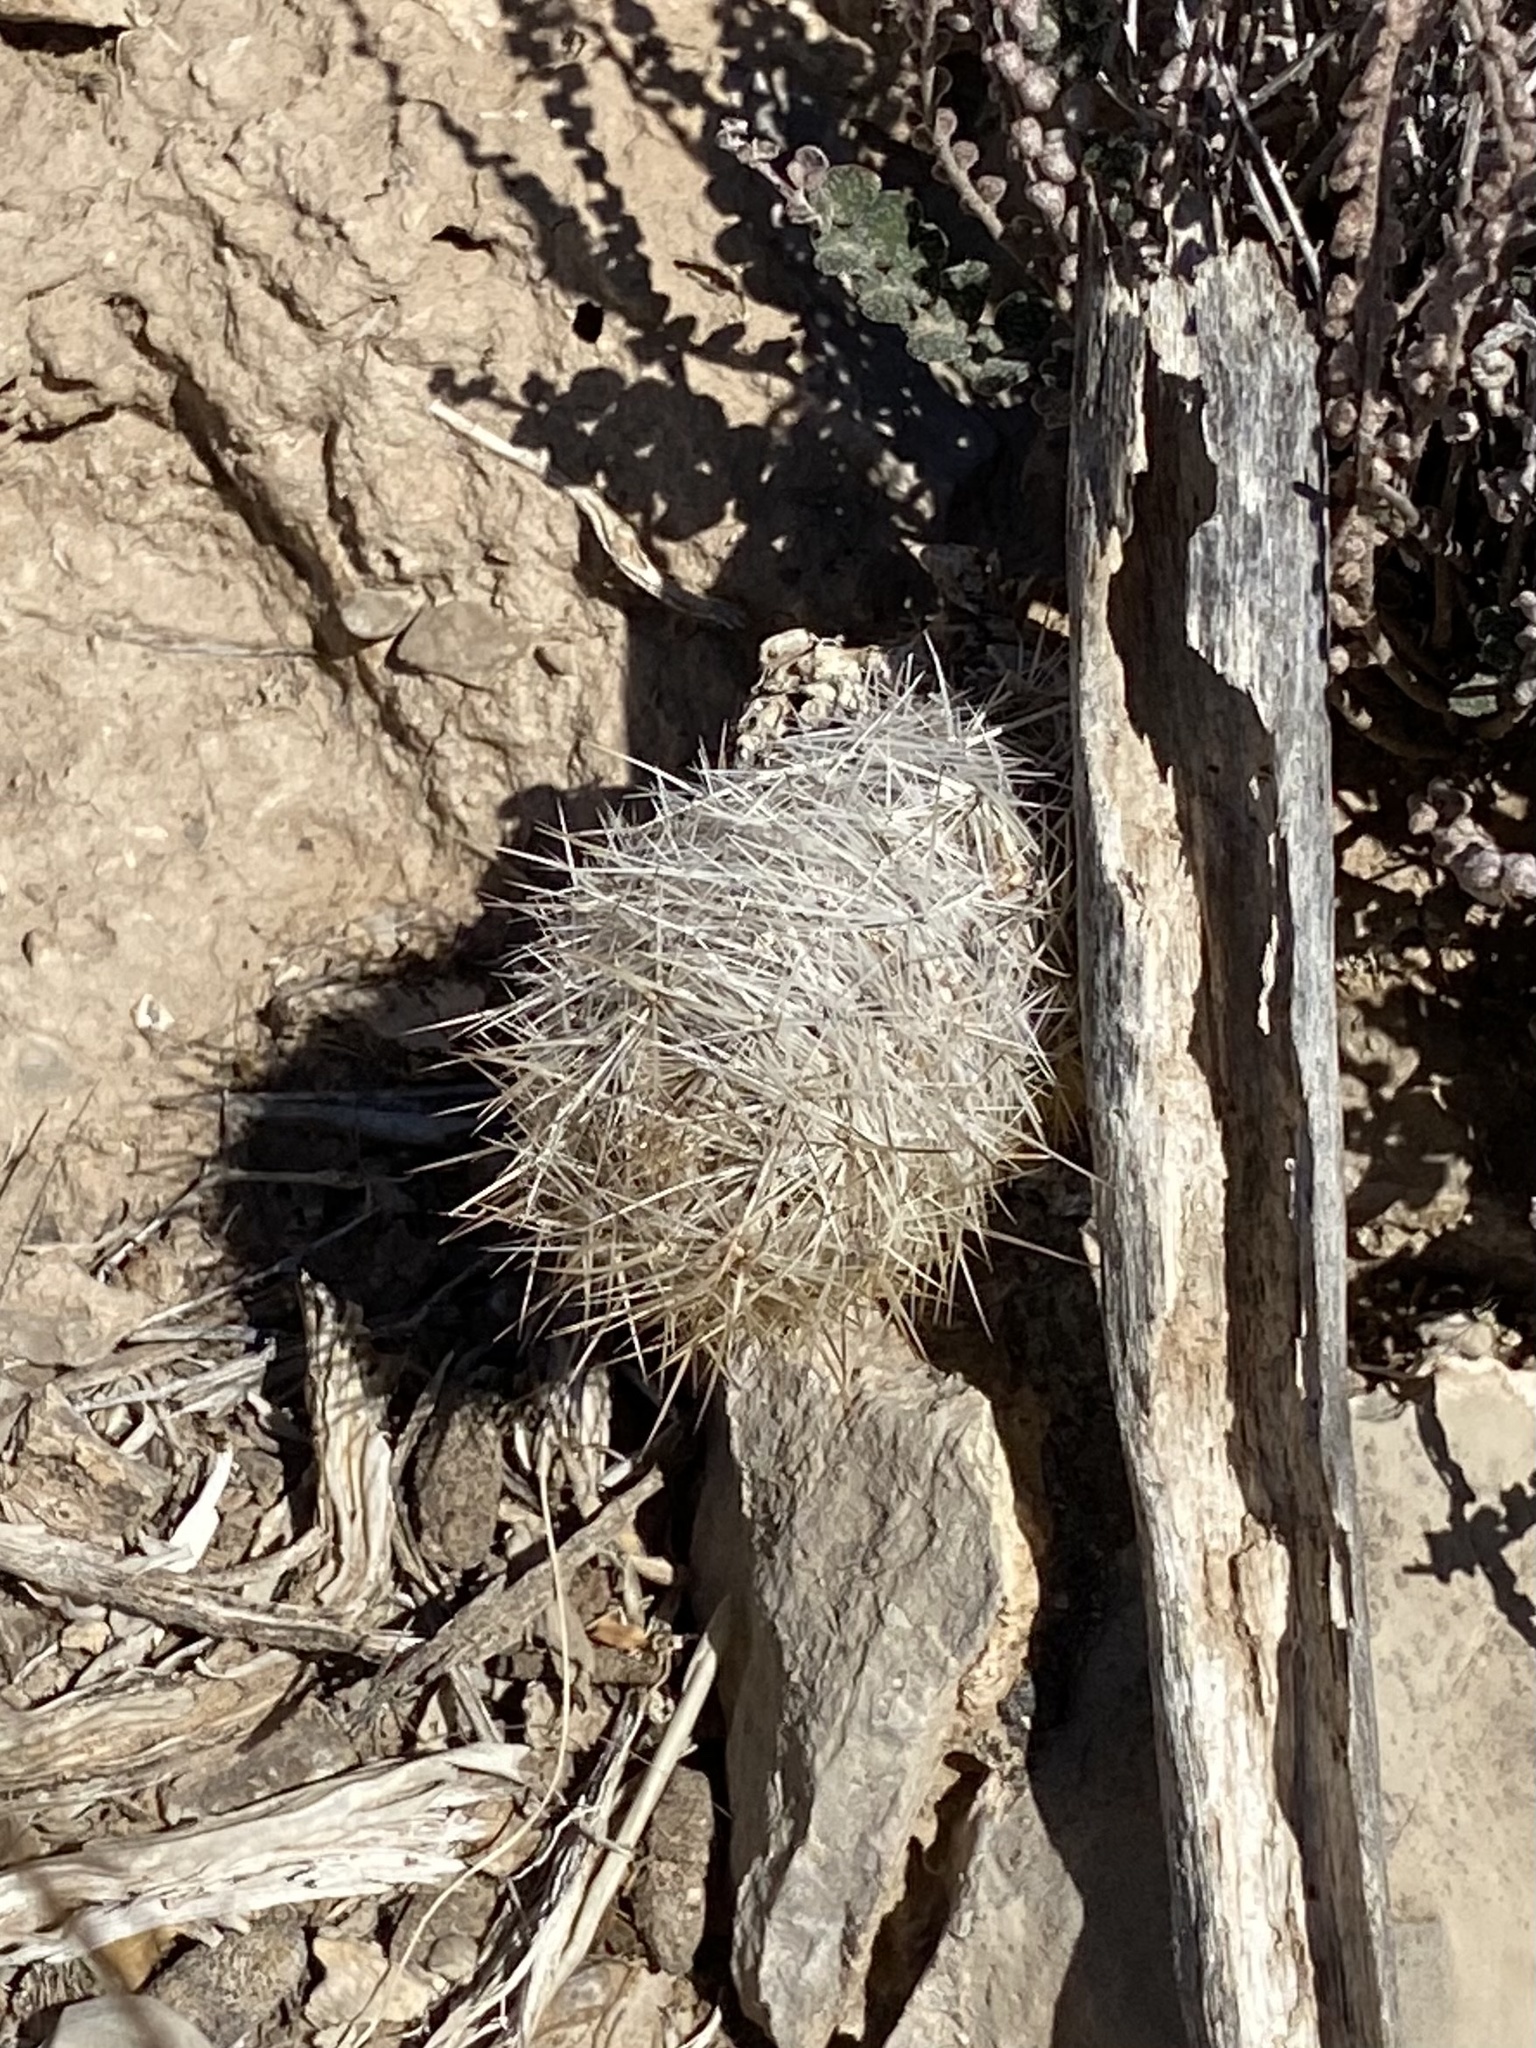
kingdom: Plantae
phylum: Tracheophyta
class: Magnoliopsida
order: Caryophyllales
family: Cactaceae
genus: Pelecyphora
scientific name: Pelecyphora tuberculosa
